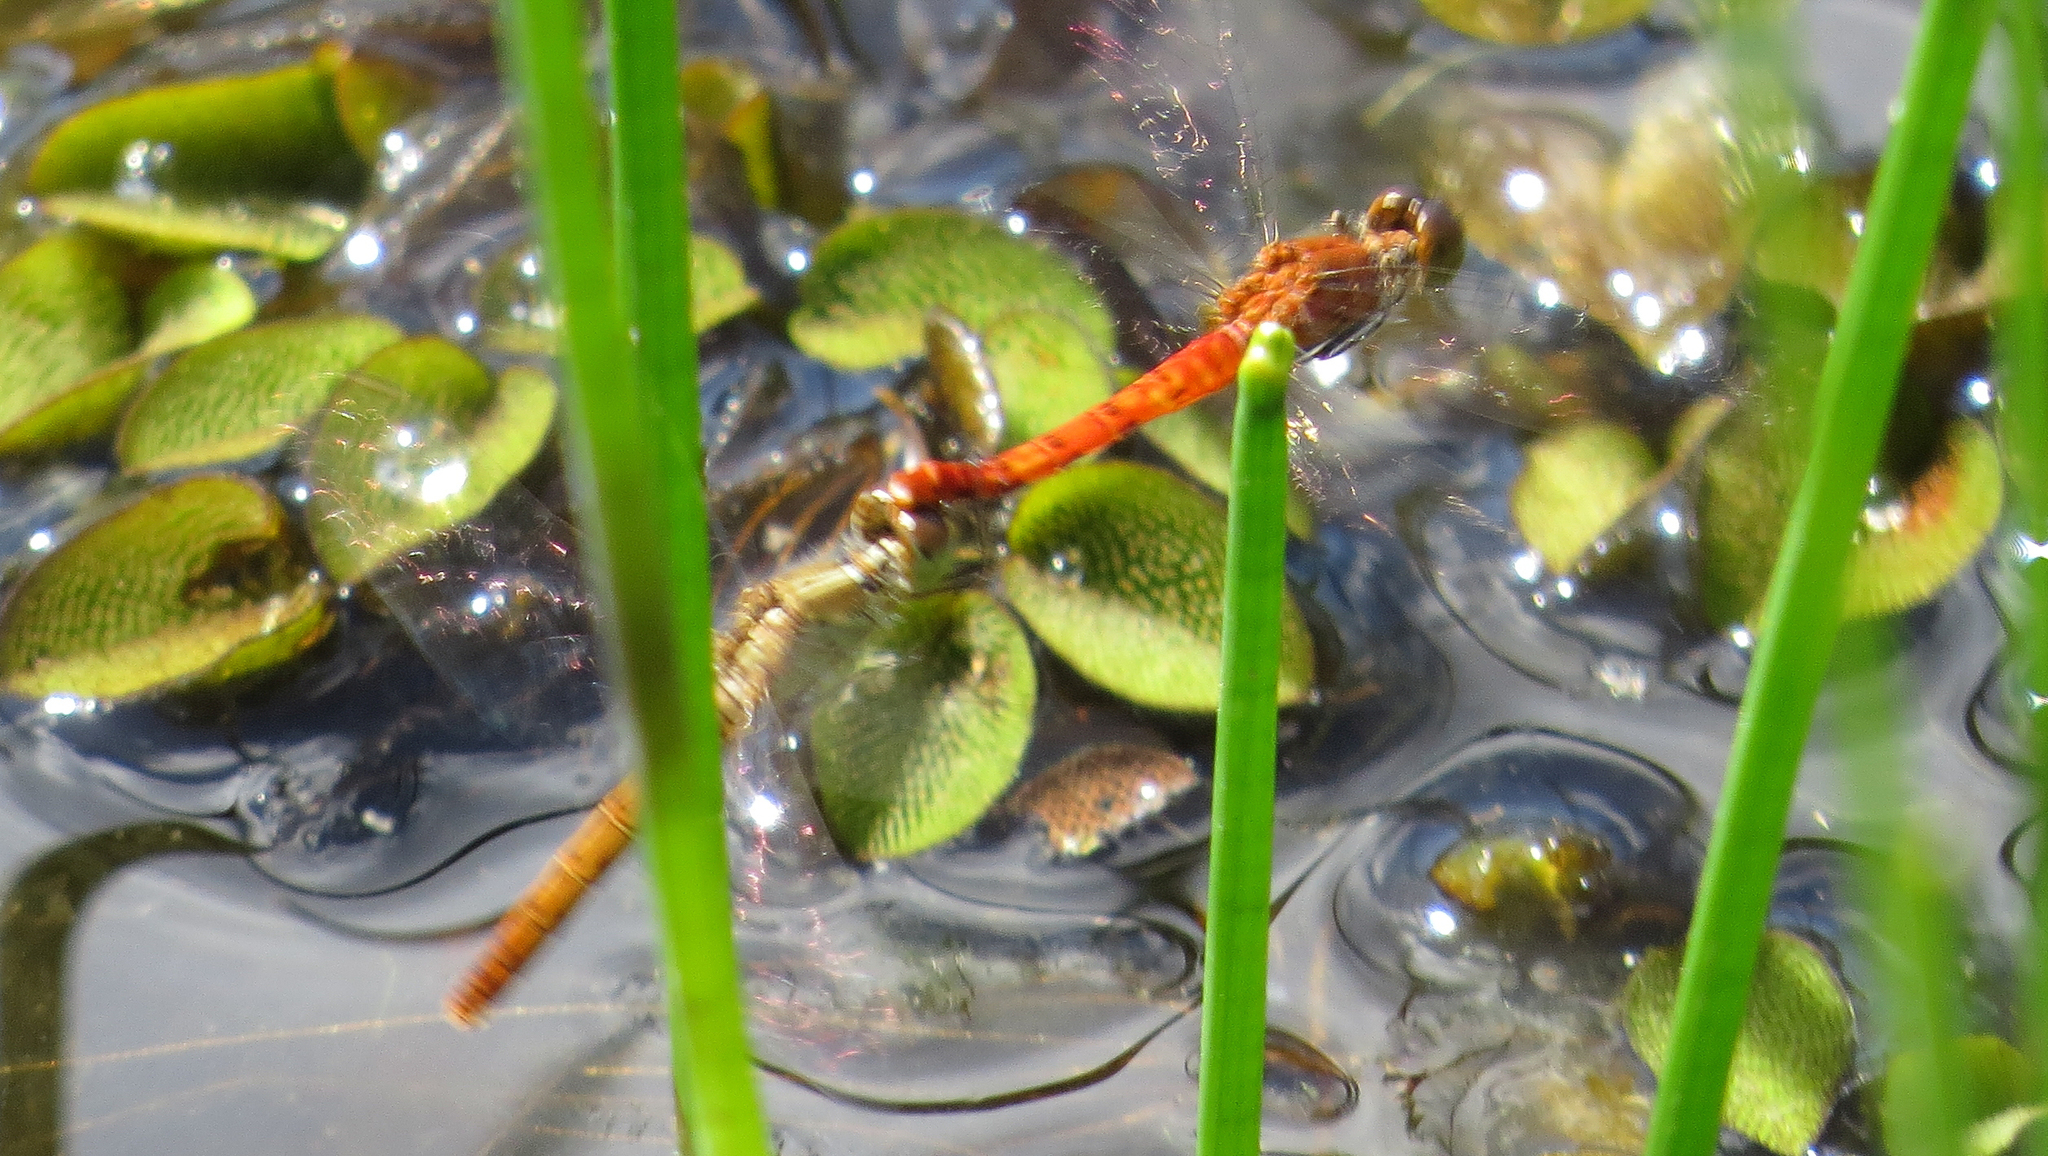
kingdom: Animalia
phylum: Arthropoda
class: Insecta
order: Odonata
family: Libellulidae
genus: Nannodiplax
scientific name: Nannodiplax rubra
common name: Pygmy percher
